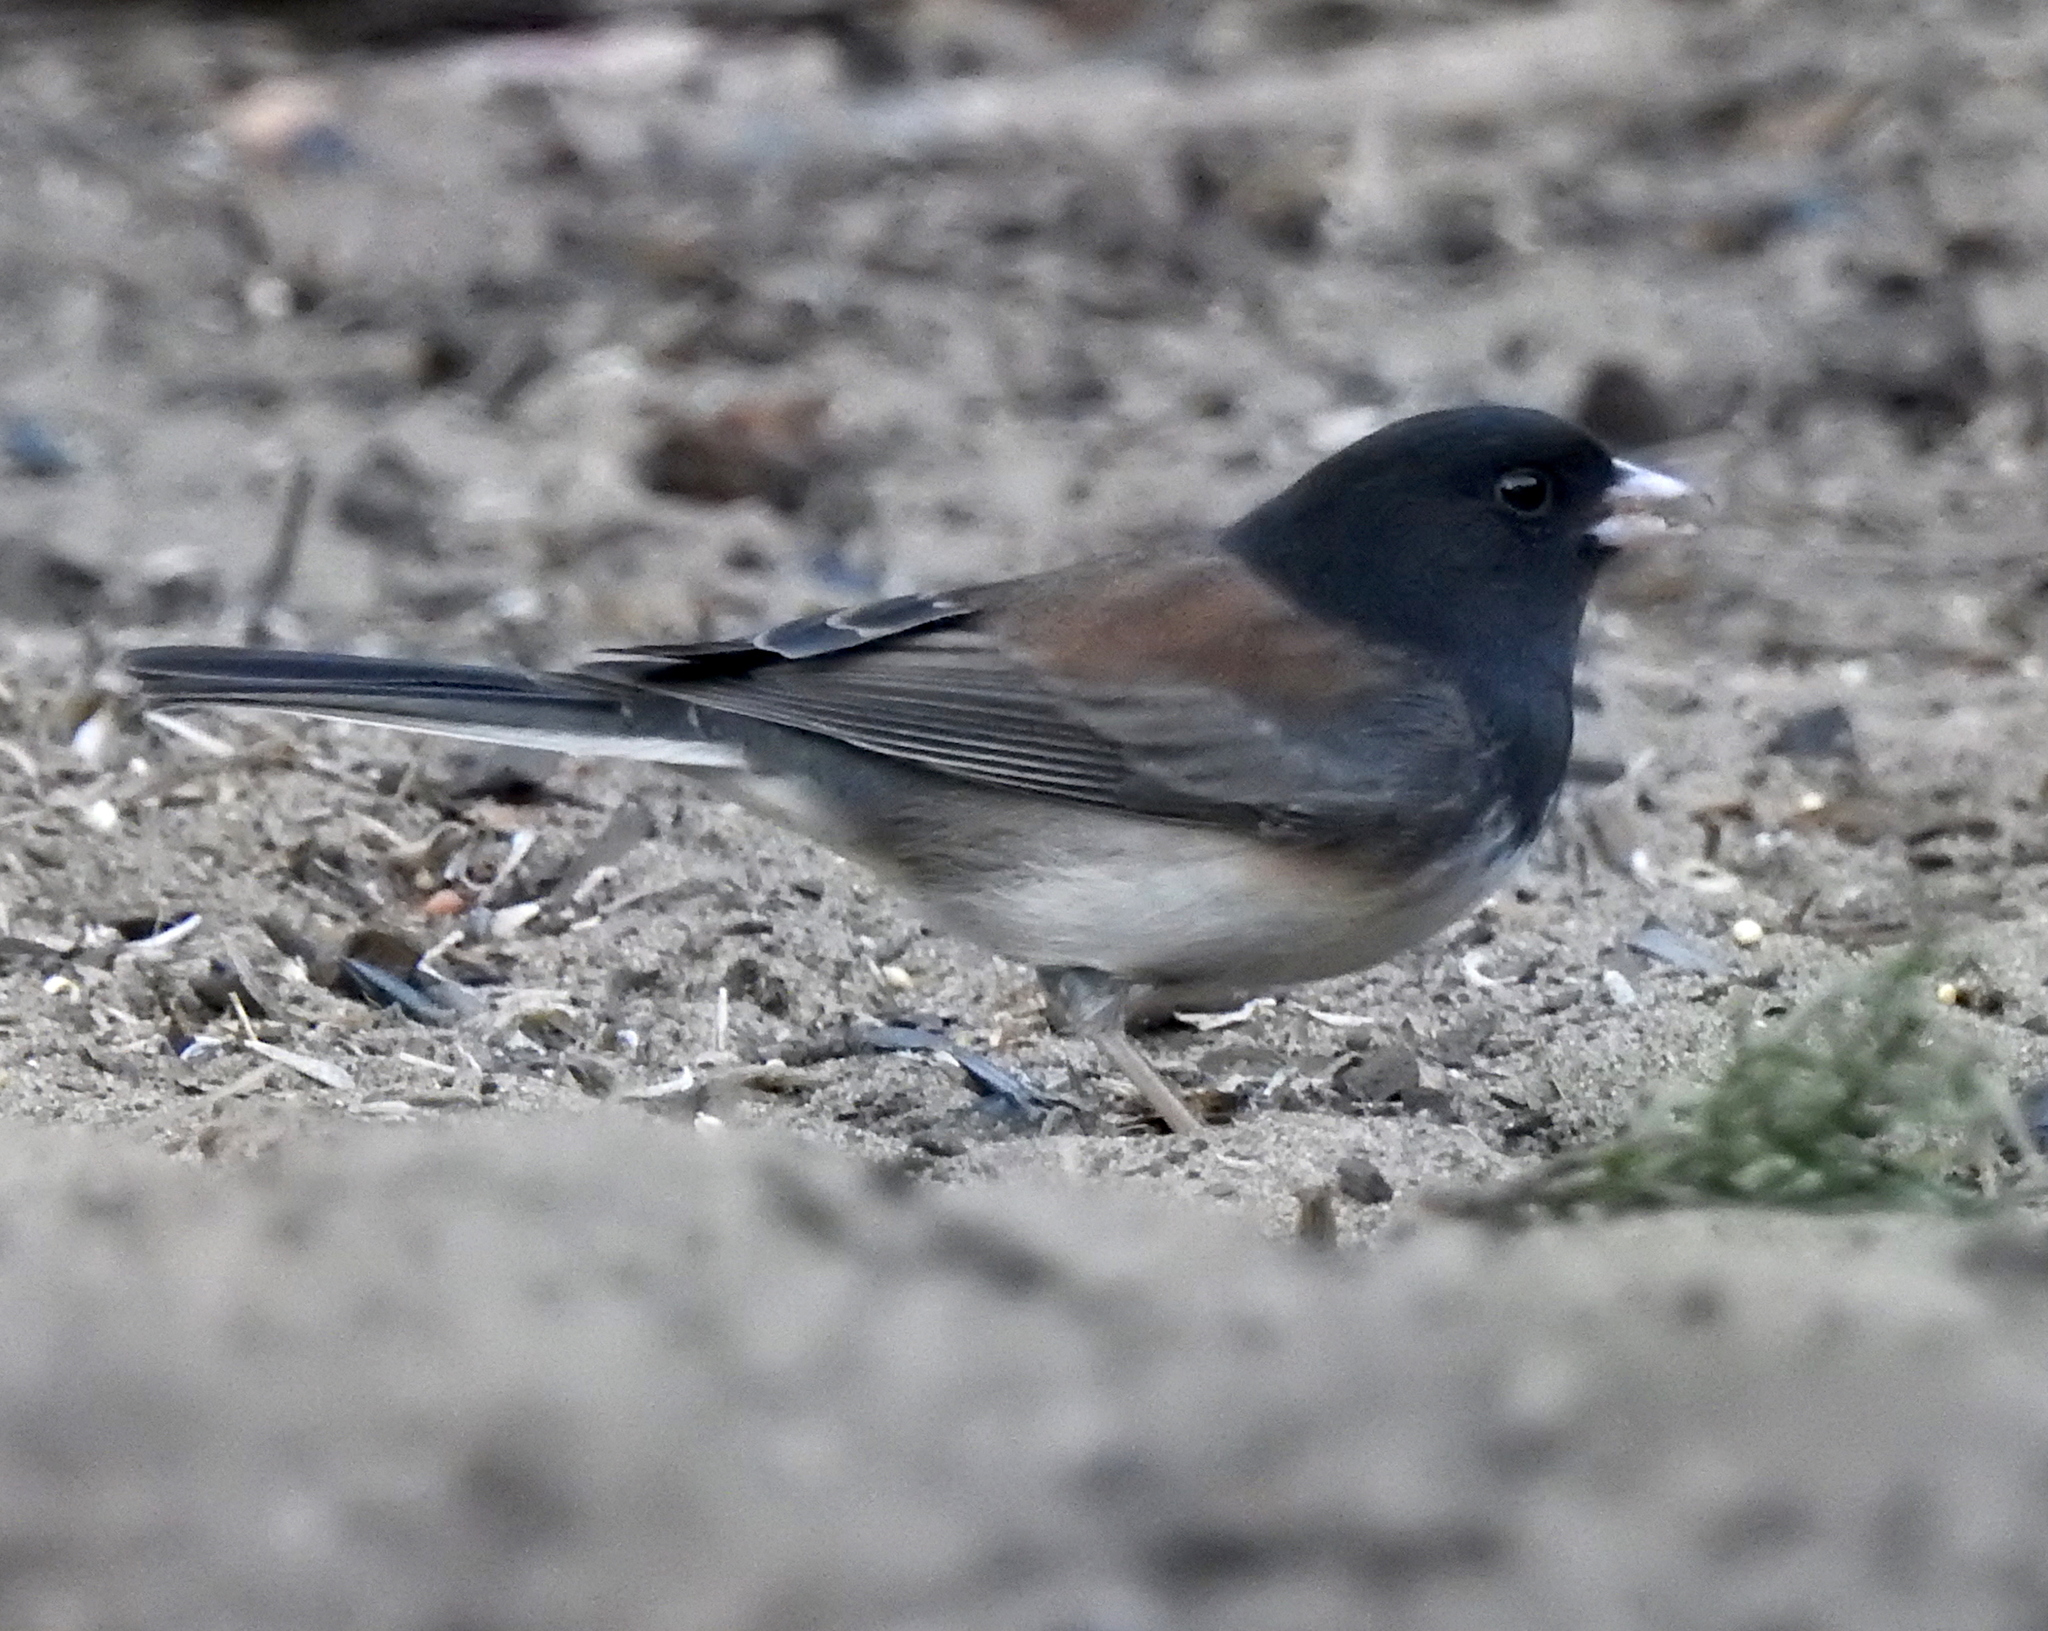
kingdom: Animalia
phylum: Chordata
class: Aves
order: Passeriformes
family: Passerellidae
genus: Junco
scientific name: Junco hyemalis
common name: Dark-eyed junco
